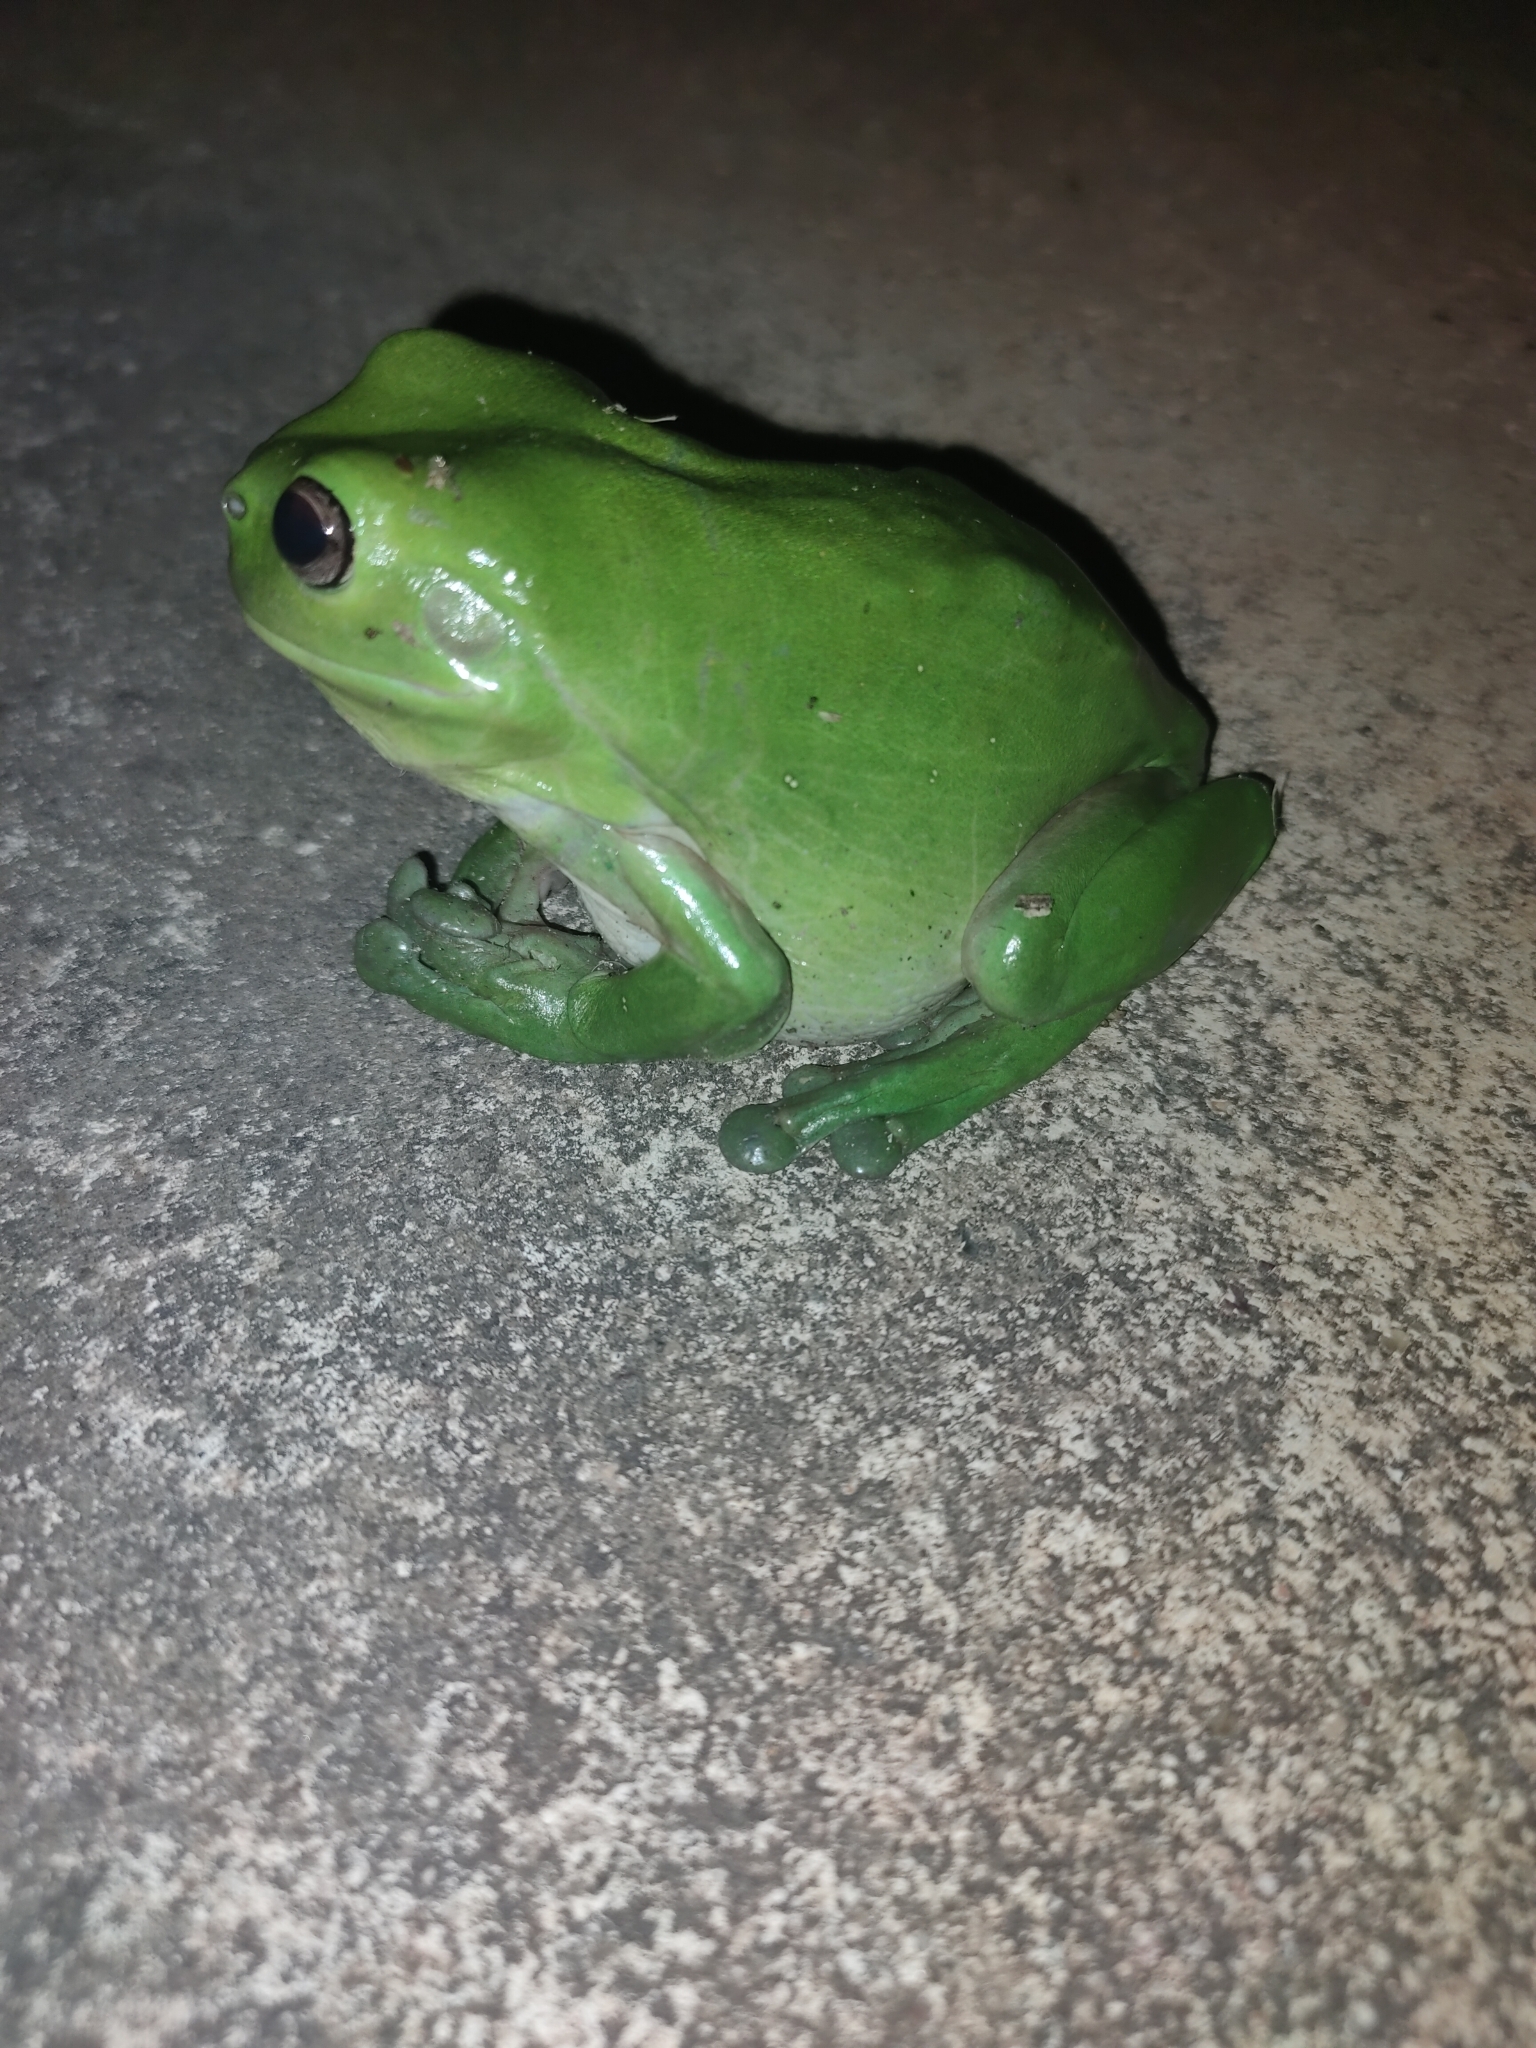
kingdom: Animalia
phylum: Chordata
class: Amphibia
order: Anura
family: Pelodryadidae
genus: Ranoidea
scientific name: Ranoidea caerulea
